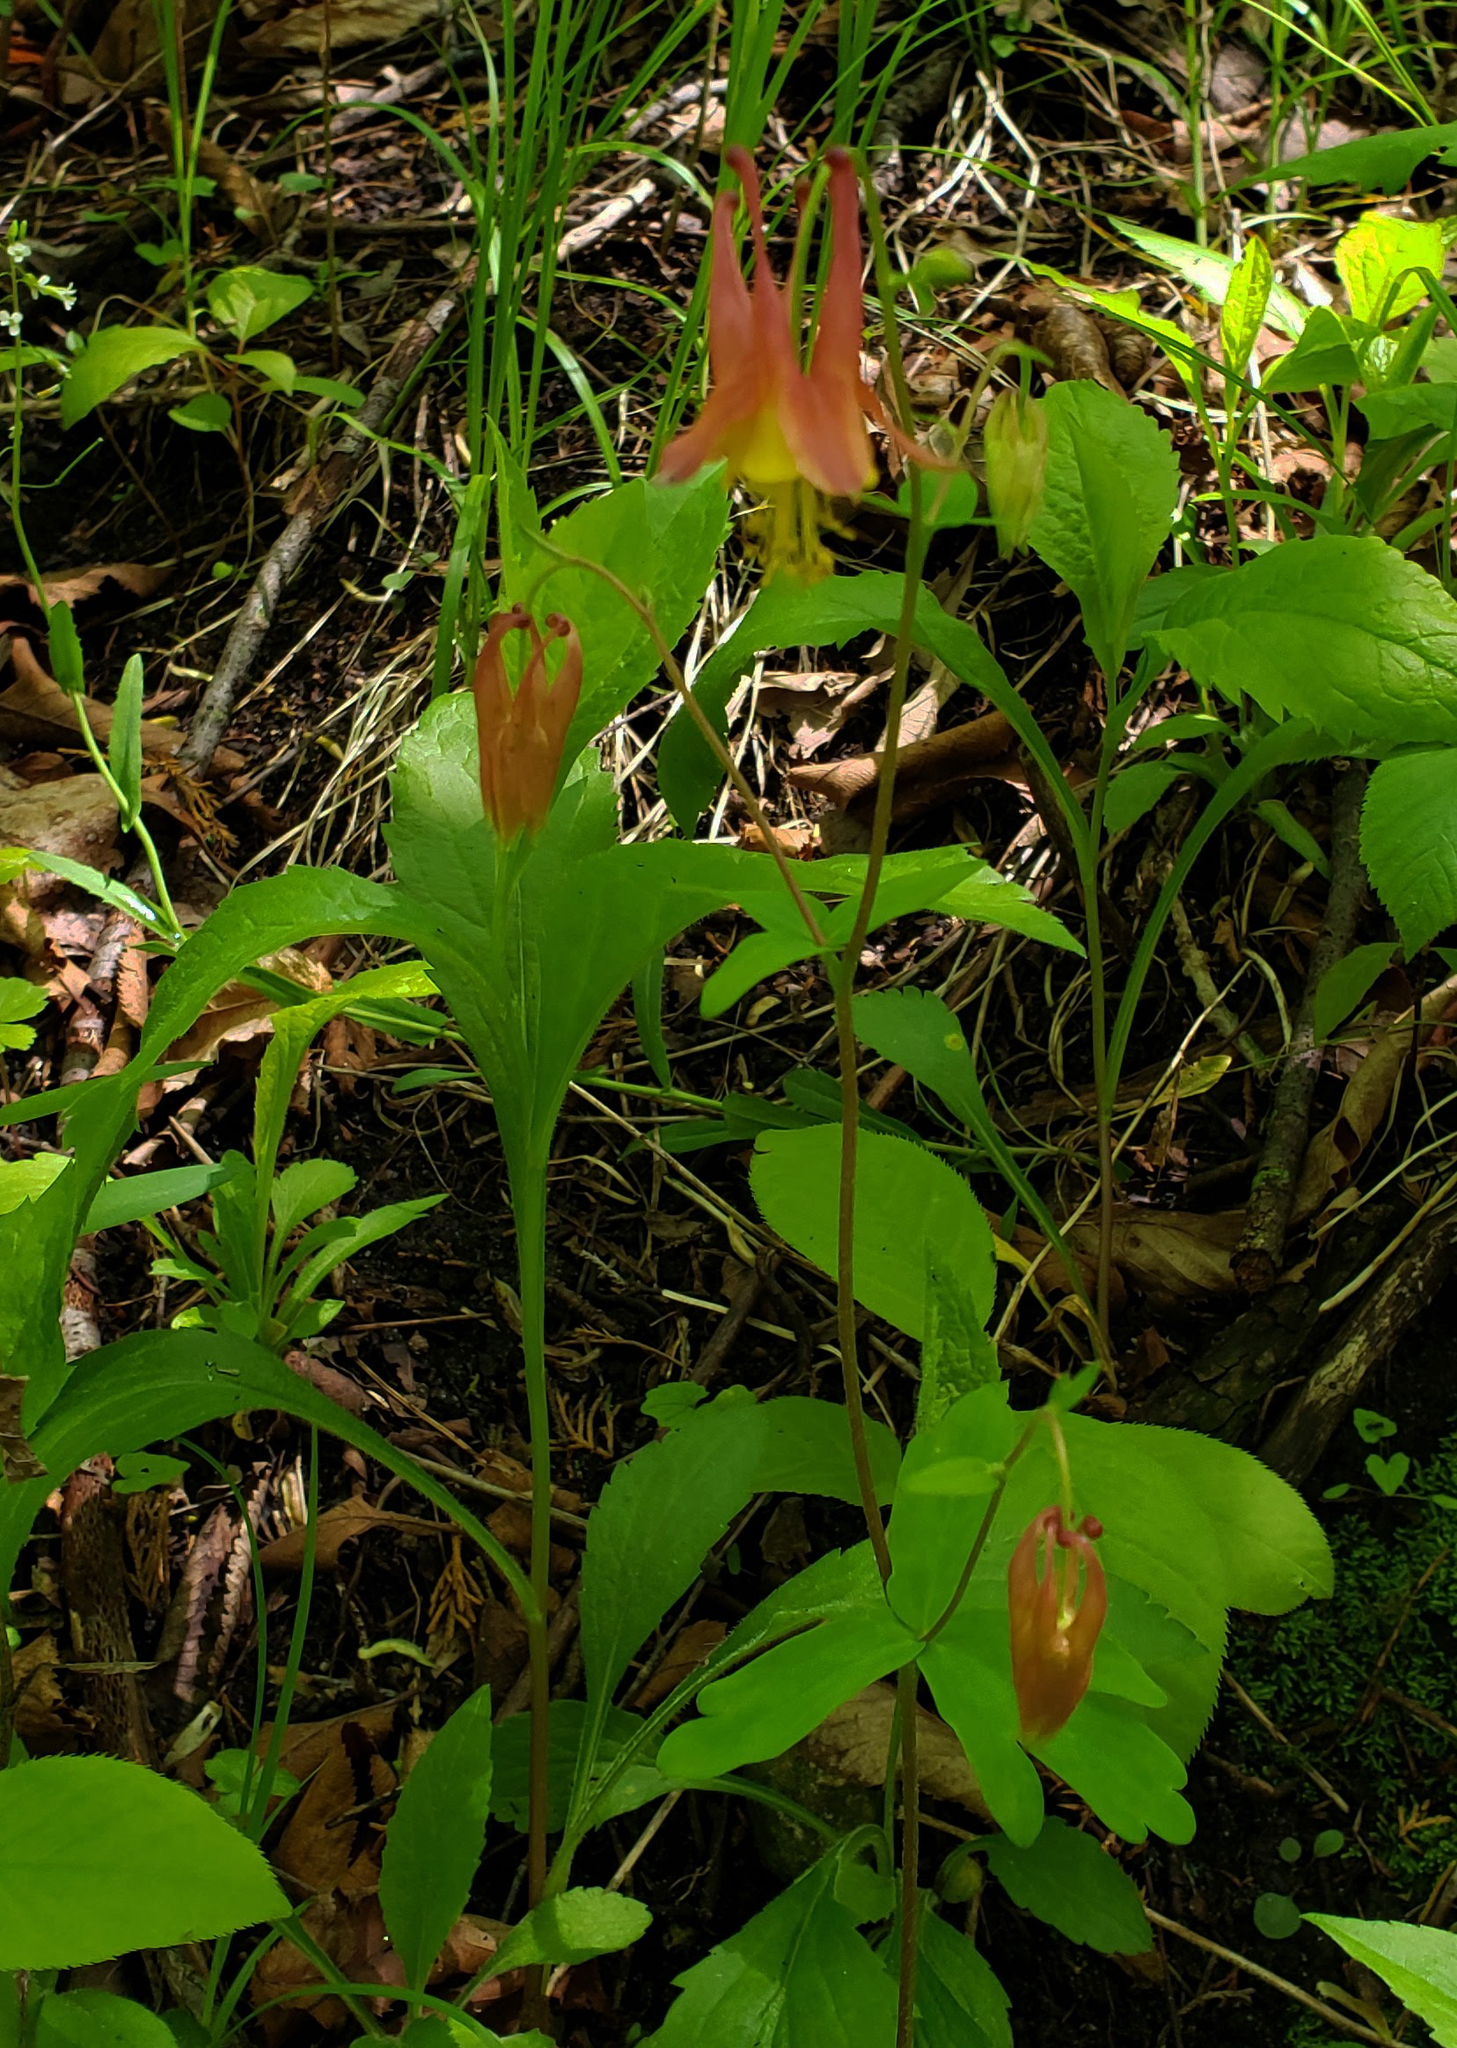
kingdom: Plantae
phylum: Tracheophyta
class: Magnoliopsida
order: Ranunculales
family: Ranunculaceae
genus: Aquilegia
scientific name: Aquilegia canadensis
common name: American columbine
